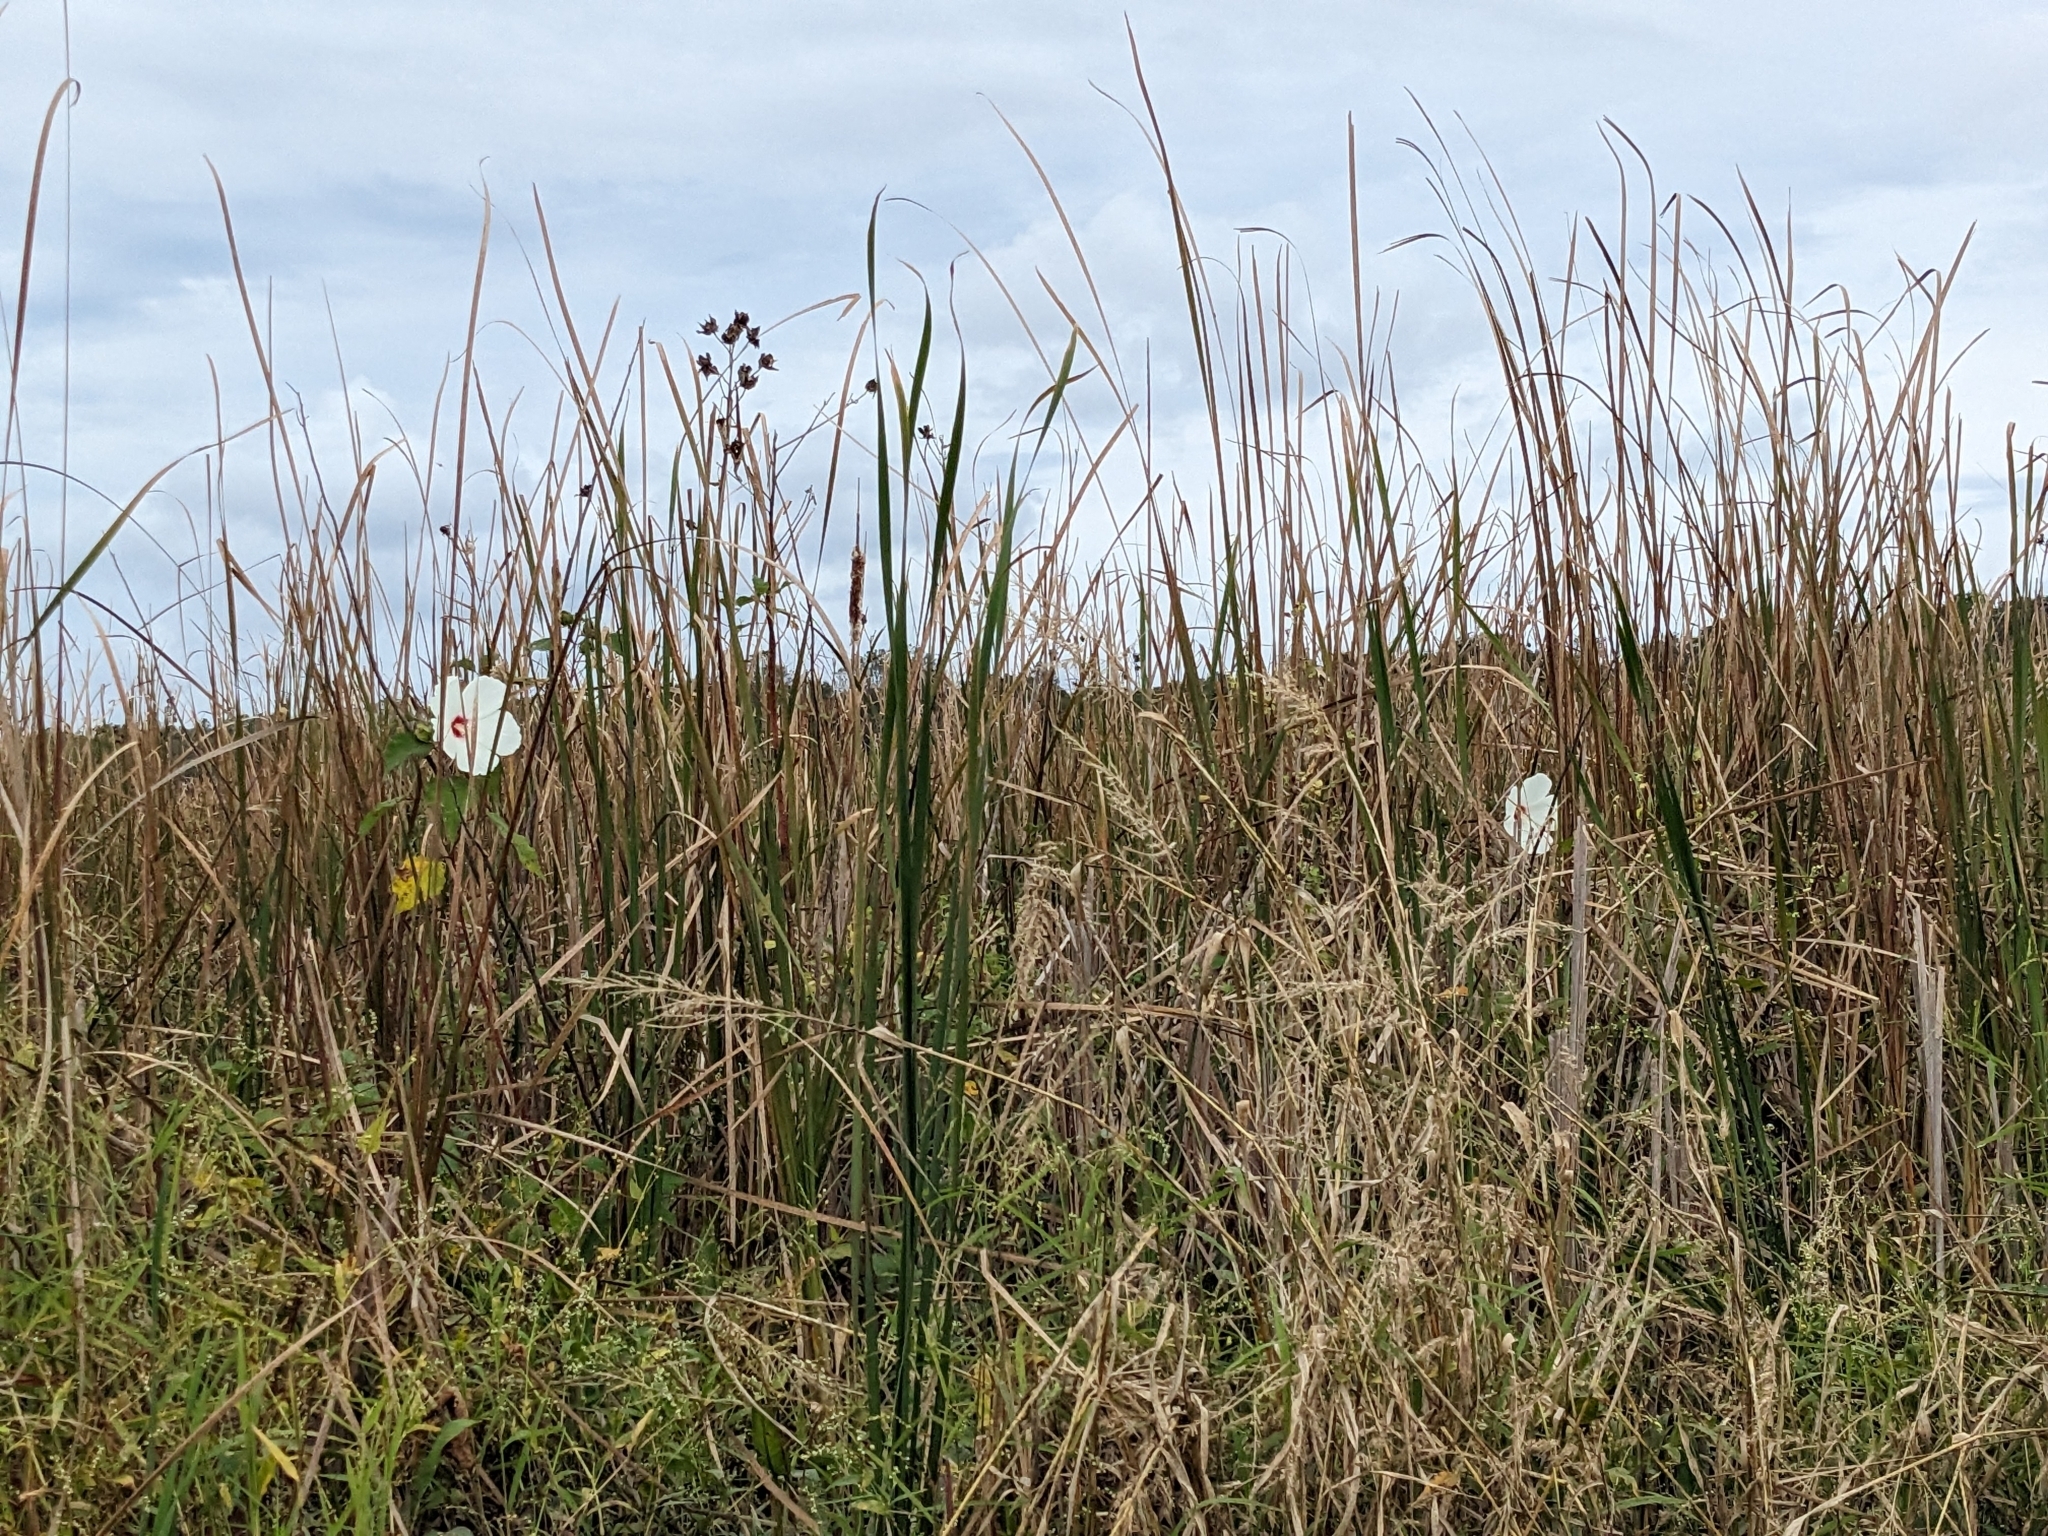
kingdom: Plantae
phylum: Tracheophyta
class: Magnoliopsida
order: Malvales
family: Malvaceae
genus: Hibiscus
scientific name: Hibiscus moscheutos
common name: Common rose-mallow
